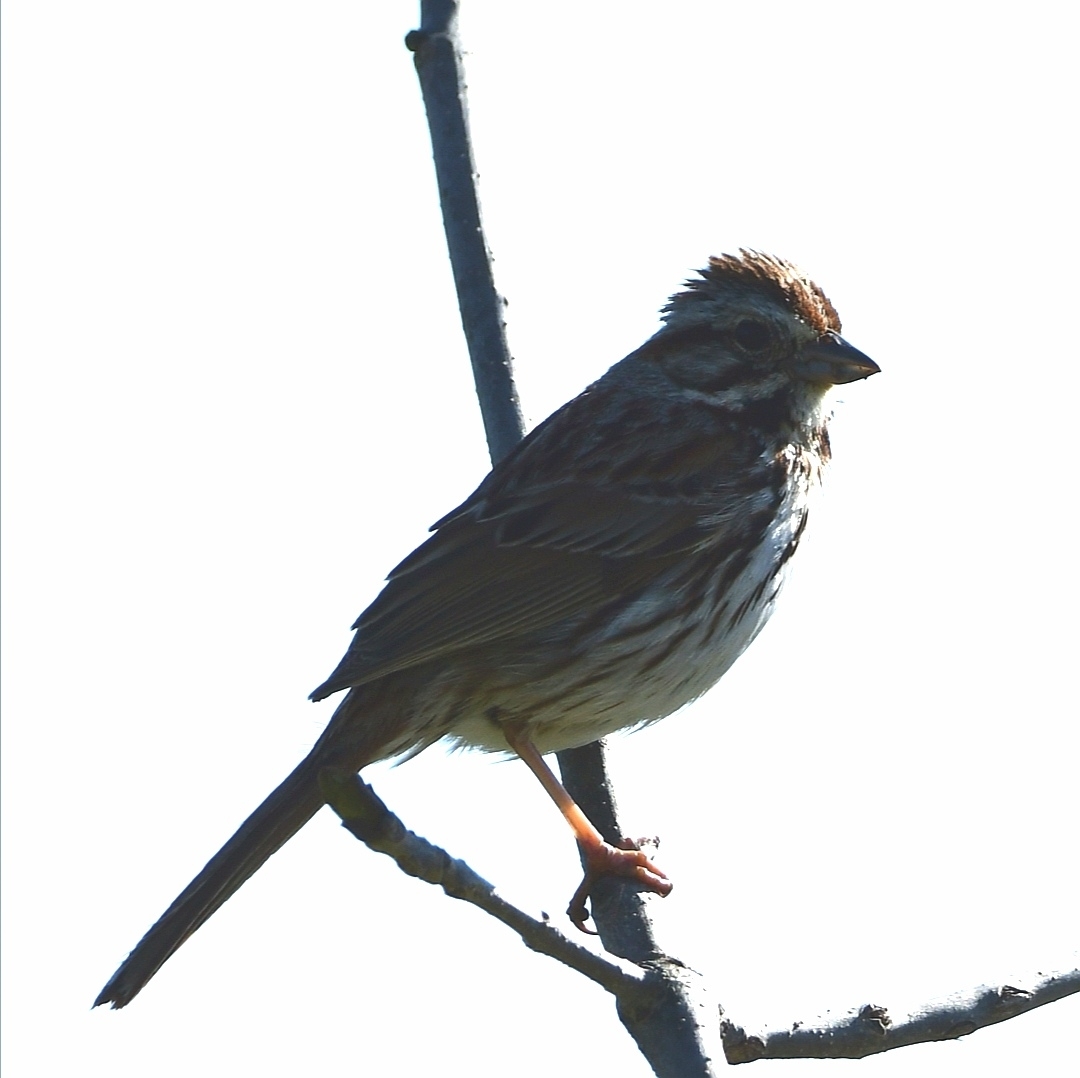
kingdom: Animalia
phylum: Chordata
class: Aves
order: Passeriformes
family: Passerellidae
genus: Melospiza
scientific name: Melospiza melodia
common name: Song sparrow
